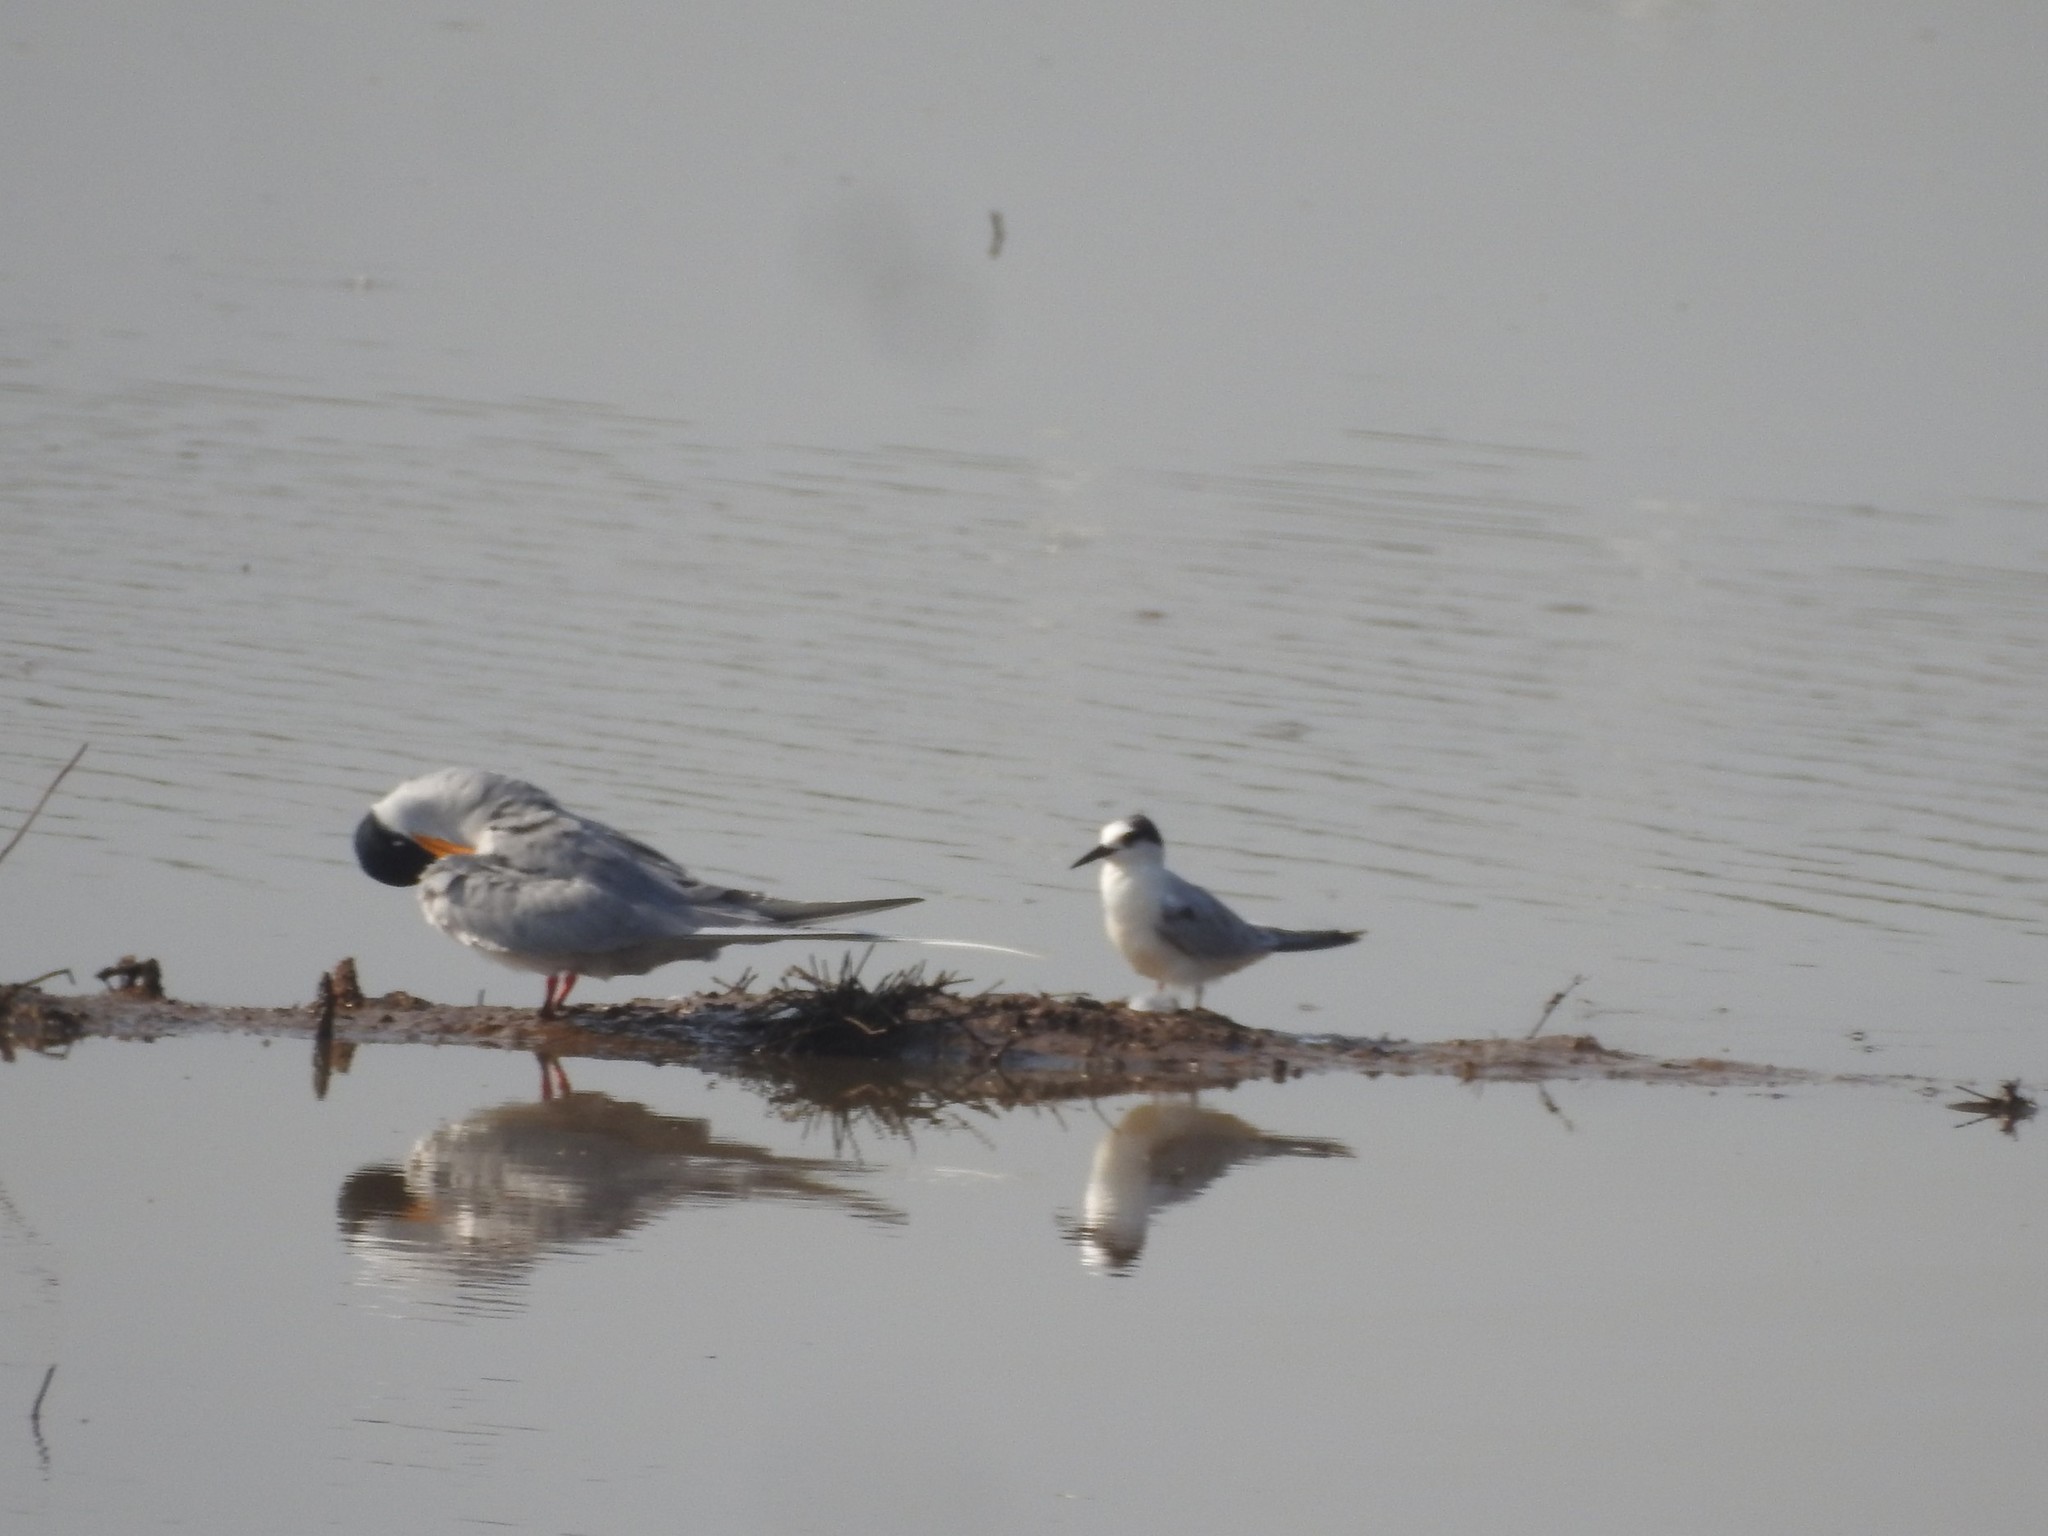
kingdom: Animalia
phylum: Chordata
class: Aves
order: Charadriiformes
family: Laridae
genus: Sternula
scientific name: Sternula albifrons
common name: Little tern
